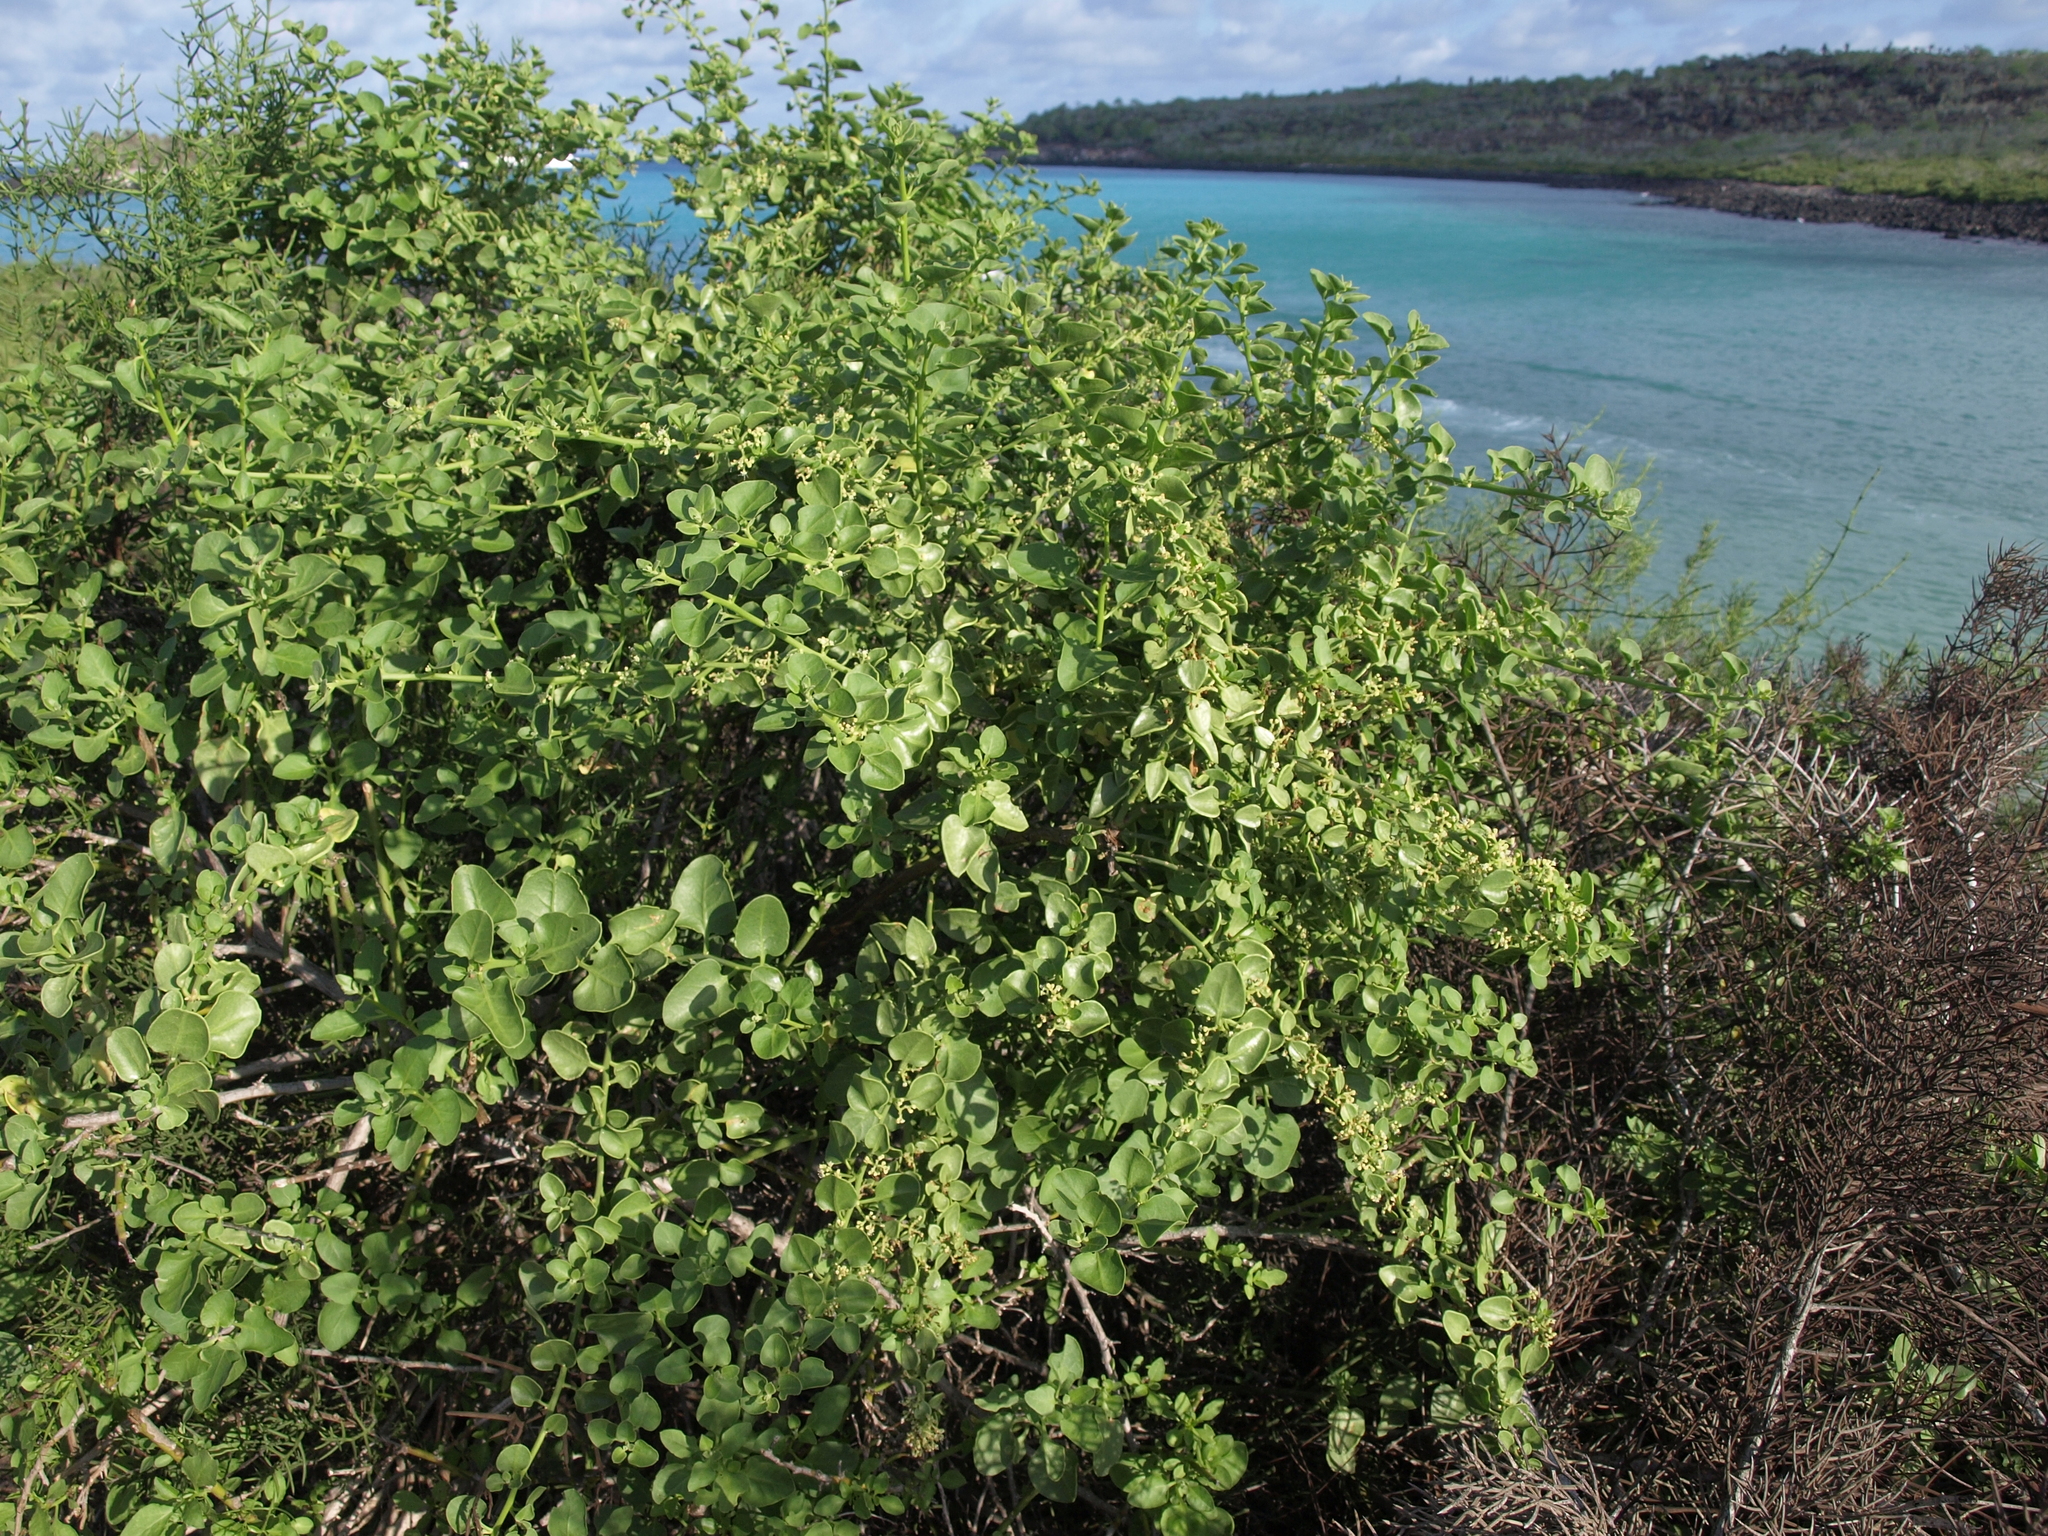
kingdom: Plantae
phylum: Tracheophyta
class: Magnoliopsida
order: Caryophyllales
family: Nyctaginaceae
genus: Cryptocarpus
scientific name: Cryptocarpus pyriformis
